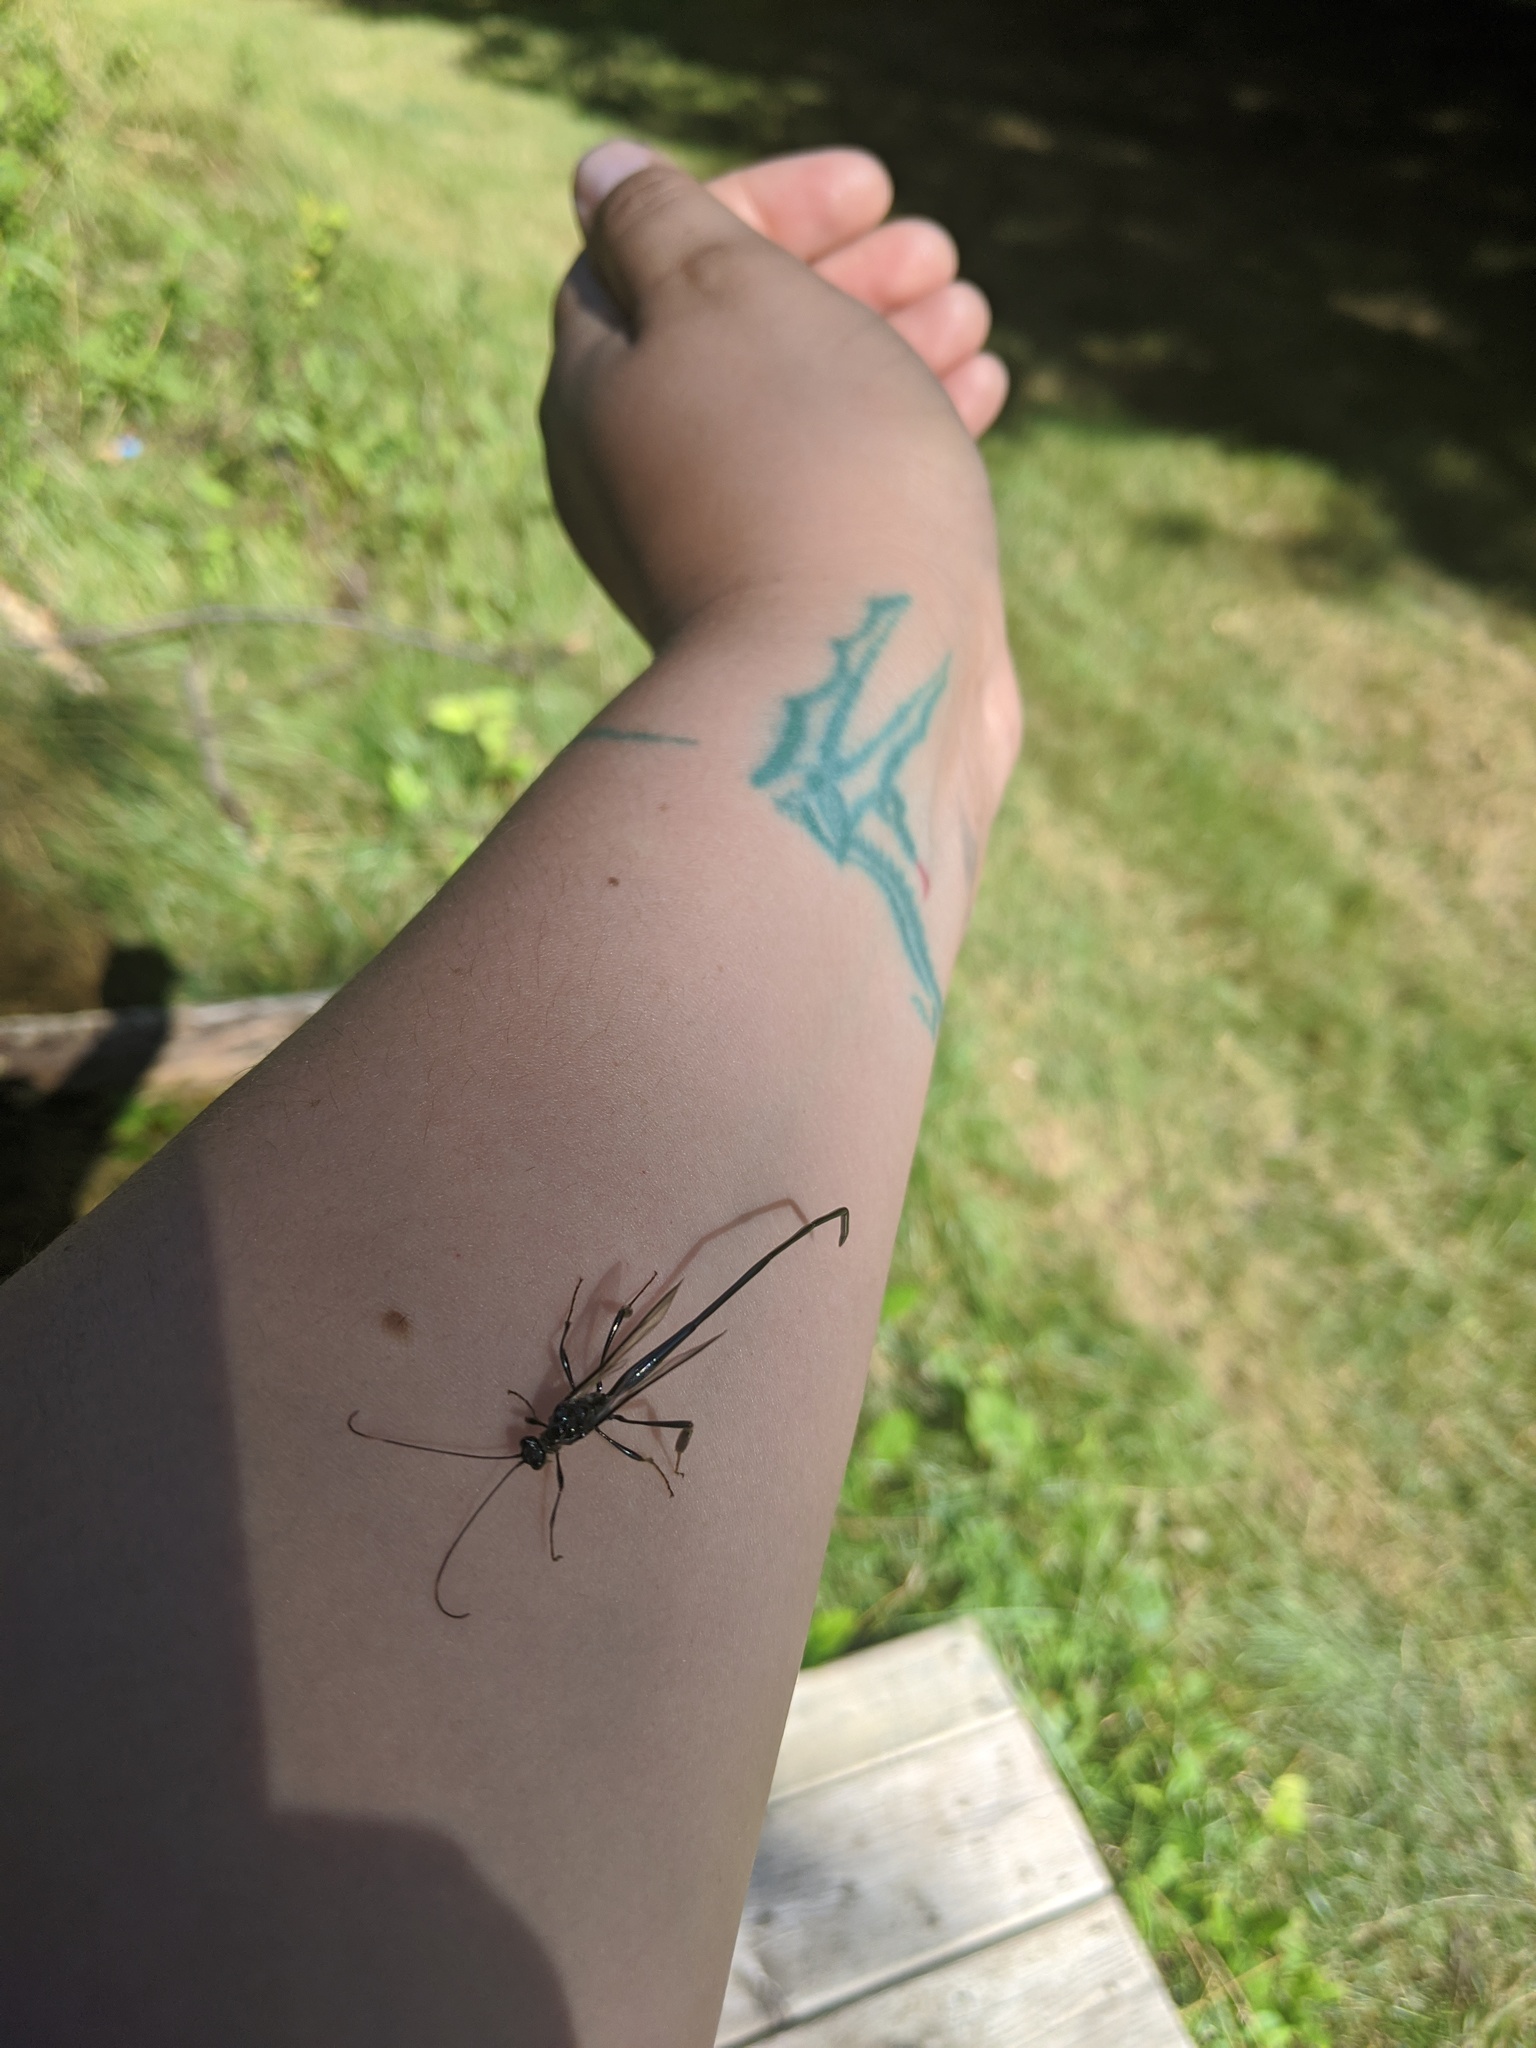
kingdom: Animalia
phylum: Arthropoda
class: Insecta
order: Hymenoptera
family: Pelecinidae
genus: Pelecinus
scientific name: Pelecinus polyturator
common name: American pelecinid wasp
